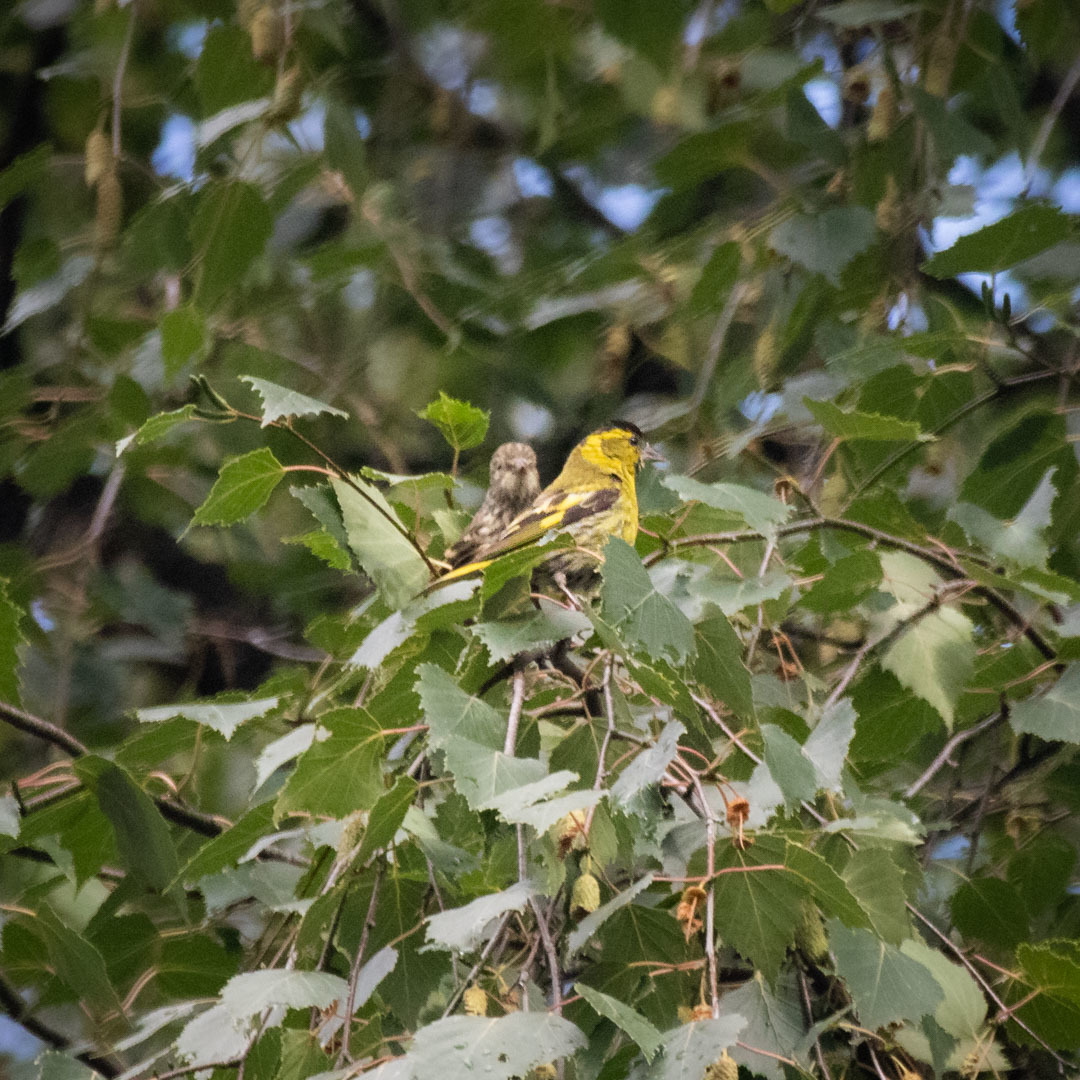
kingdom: Animalia
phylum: Chordata
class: Aves
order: Passeriformes
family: Fringillidae
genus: Spinus
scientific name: Spinus spinus
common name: Eurasian siskin
